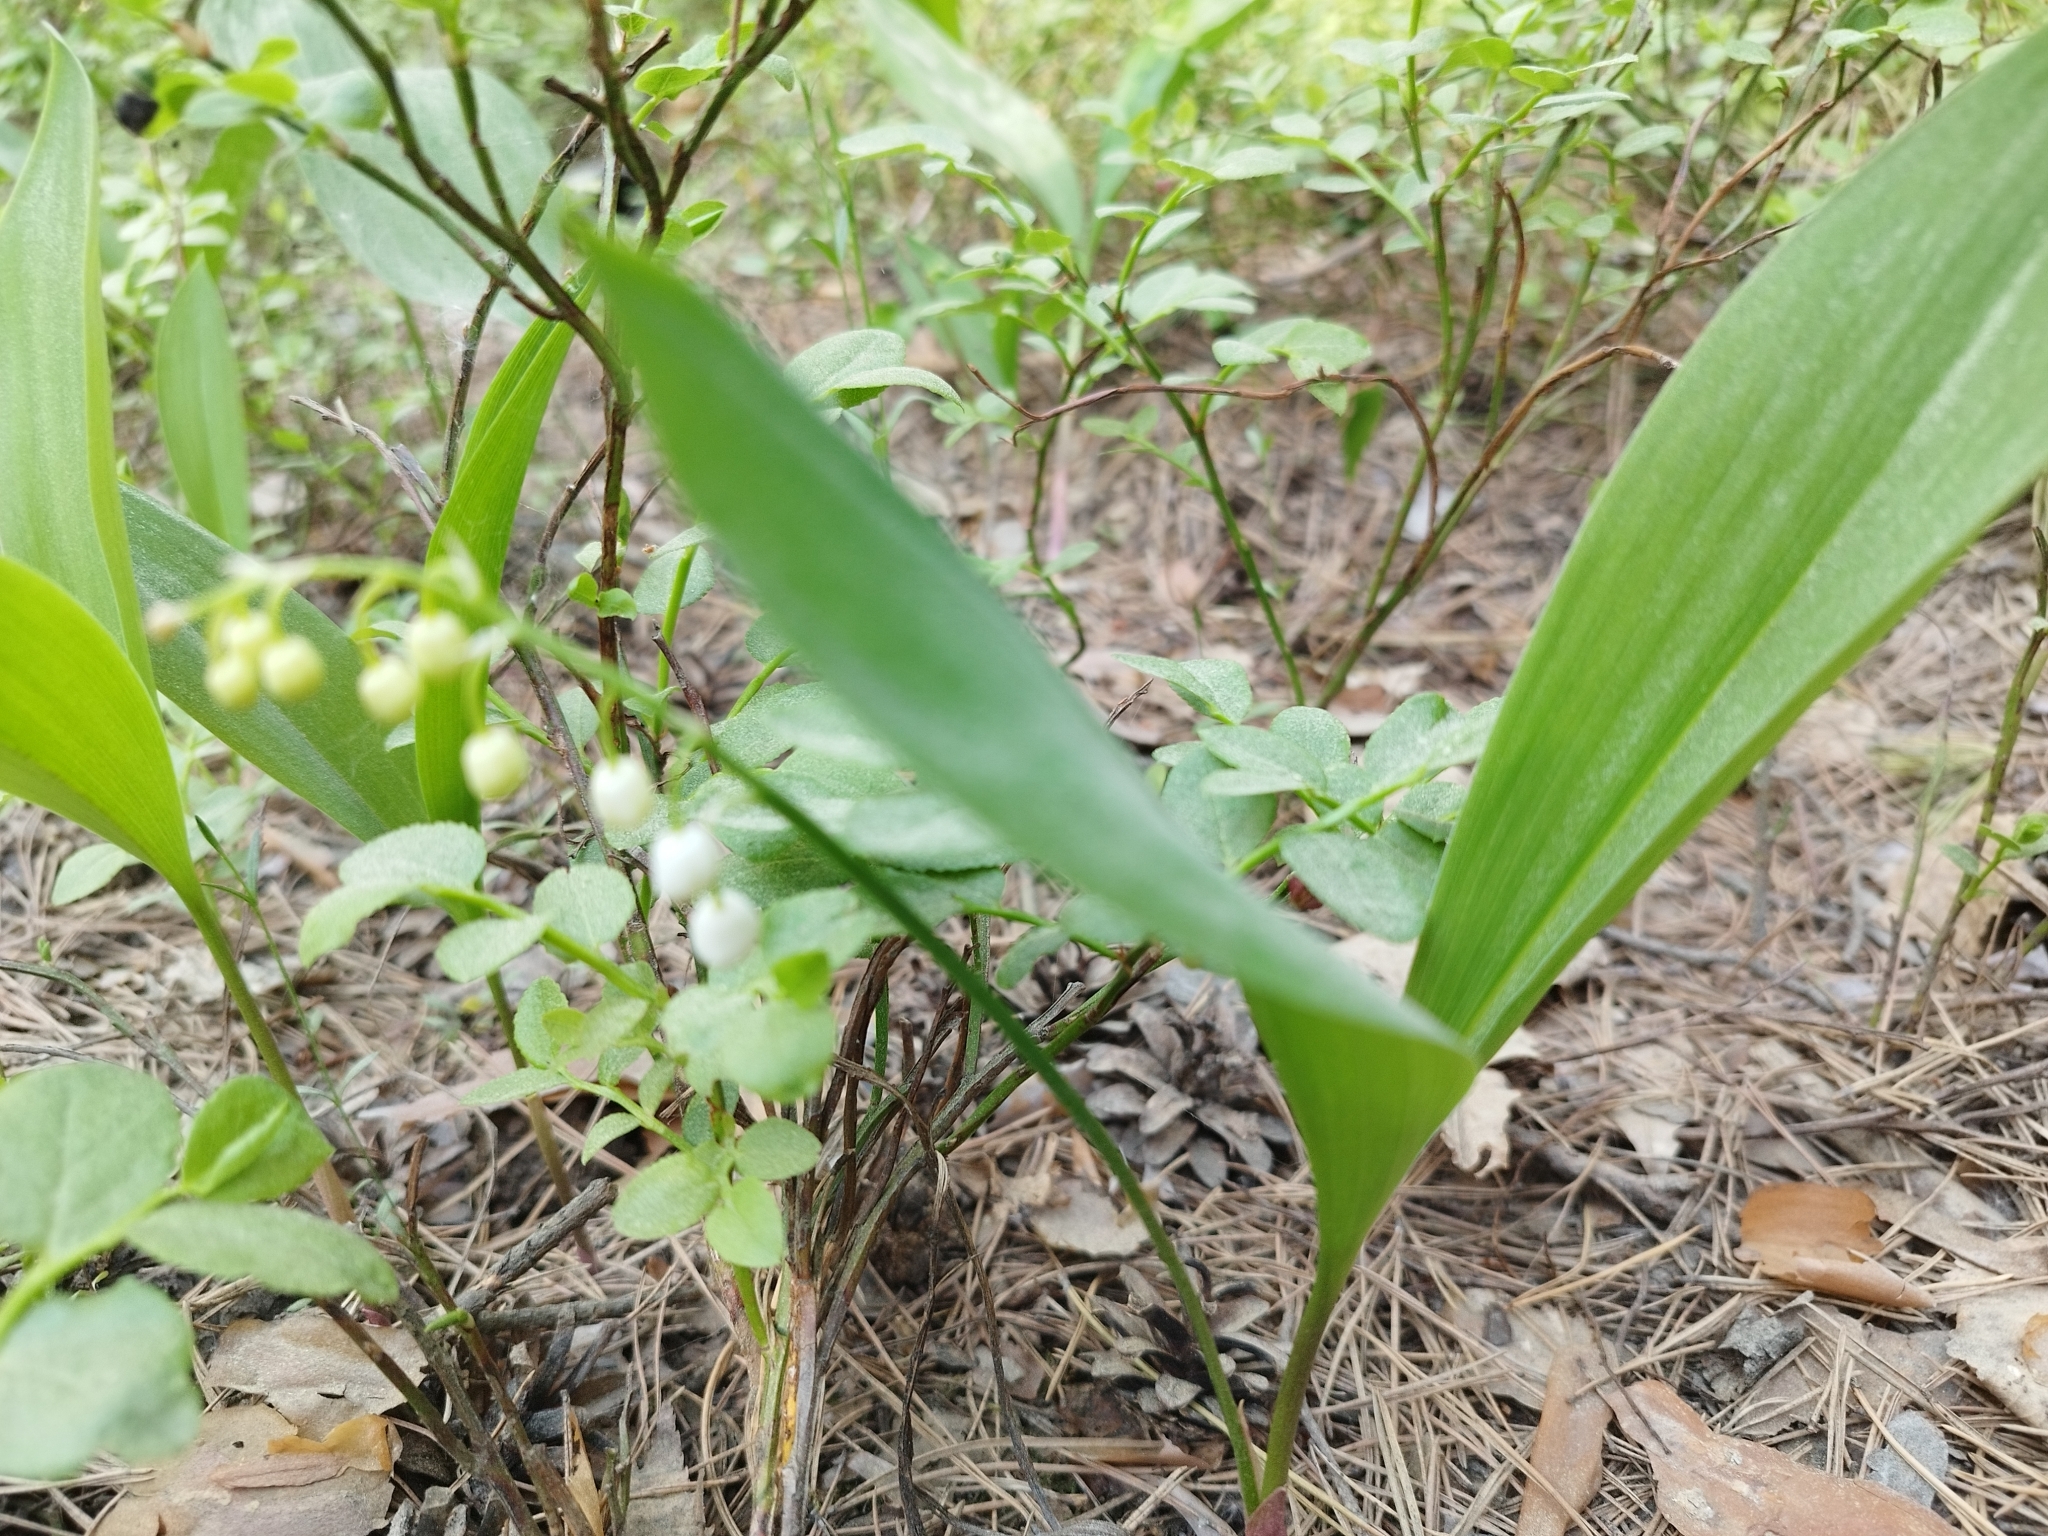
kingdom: Plantae
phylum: Tracheophyta
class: Liliopsida
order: Asparagales
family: Asparagaceae
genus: Convallaria
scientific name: Convallaria majalis
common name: Lily-of-the-valley
